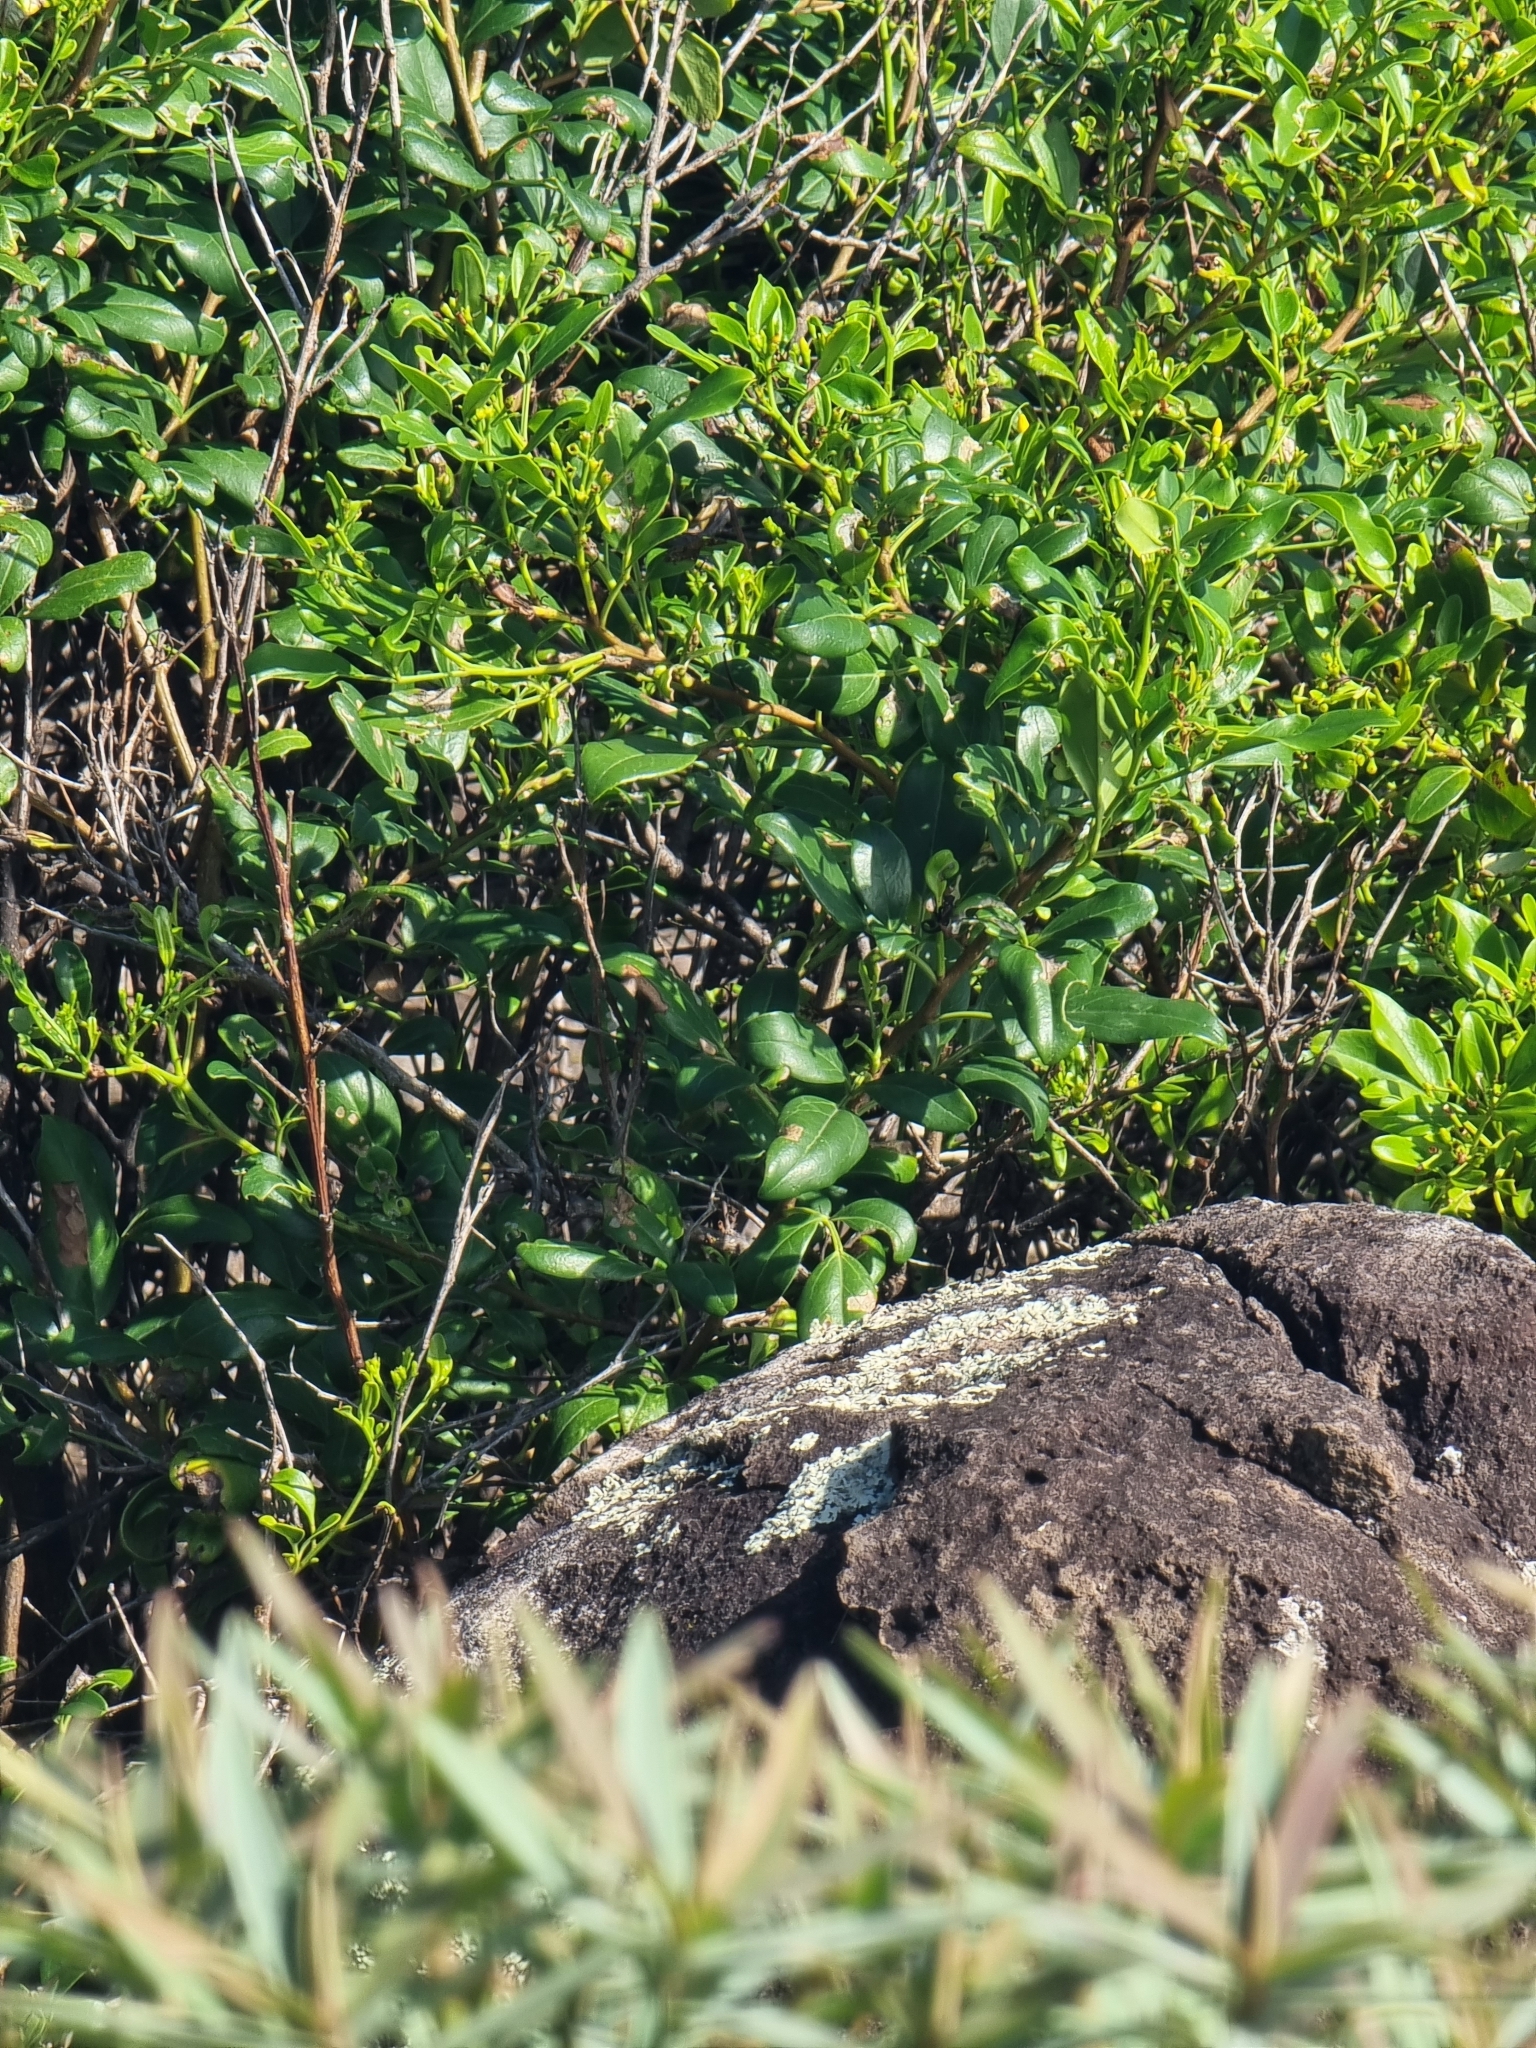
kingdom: Plantae
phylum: Tracheophyta
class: Magnoliopsida
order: Lamiales
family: Oleaceae
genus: Chrysojasminum
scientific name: Chrysojasminum odoratissimum
